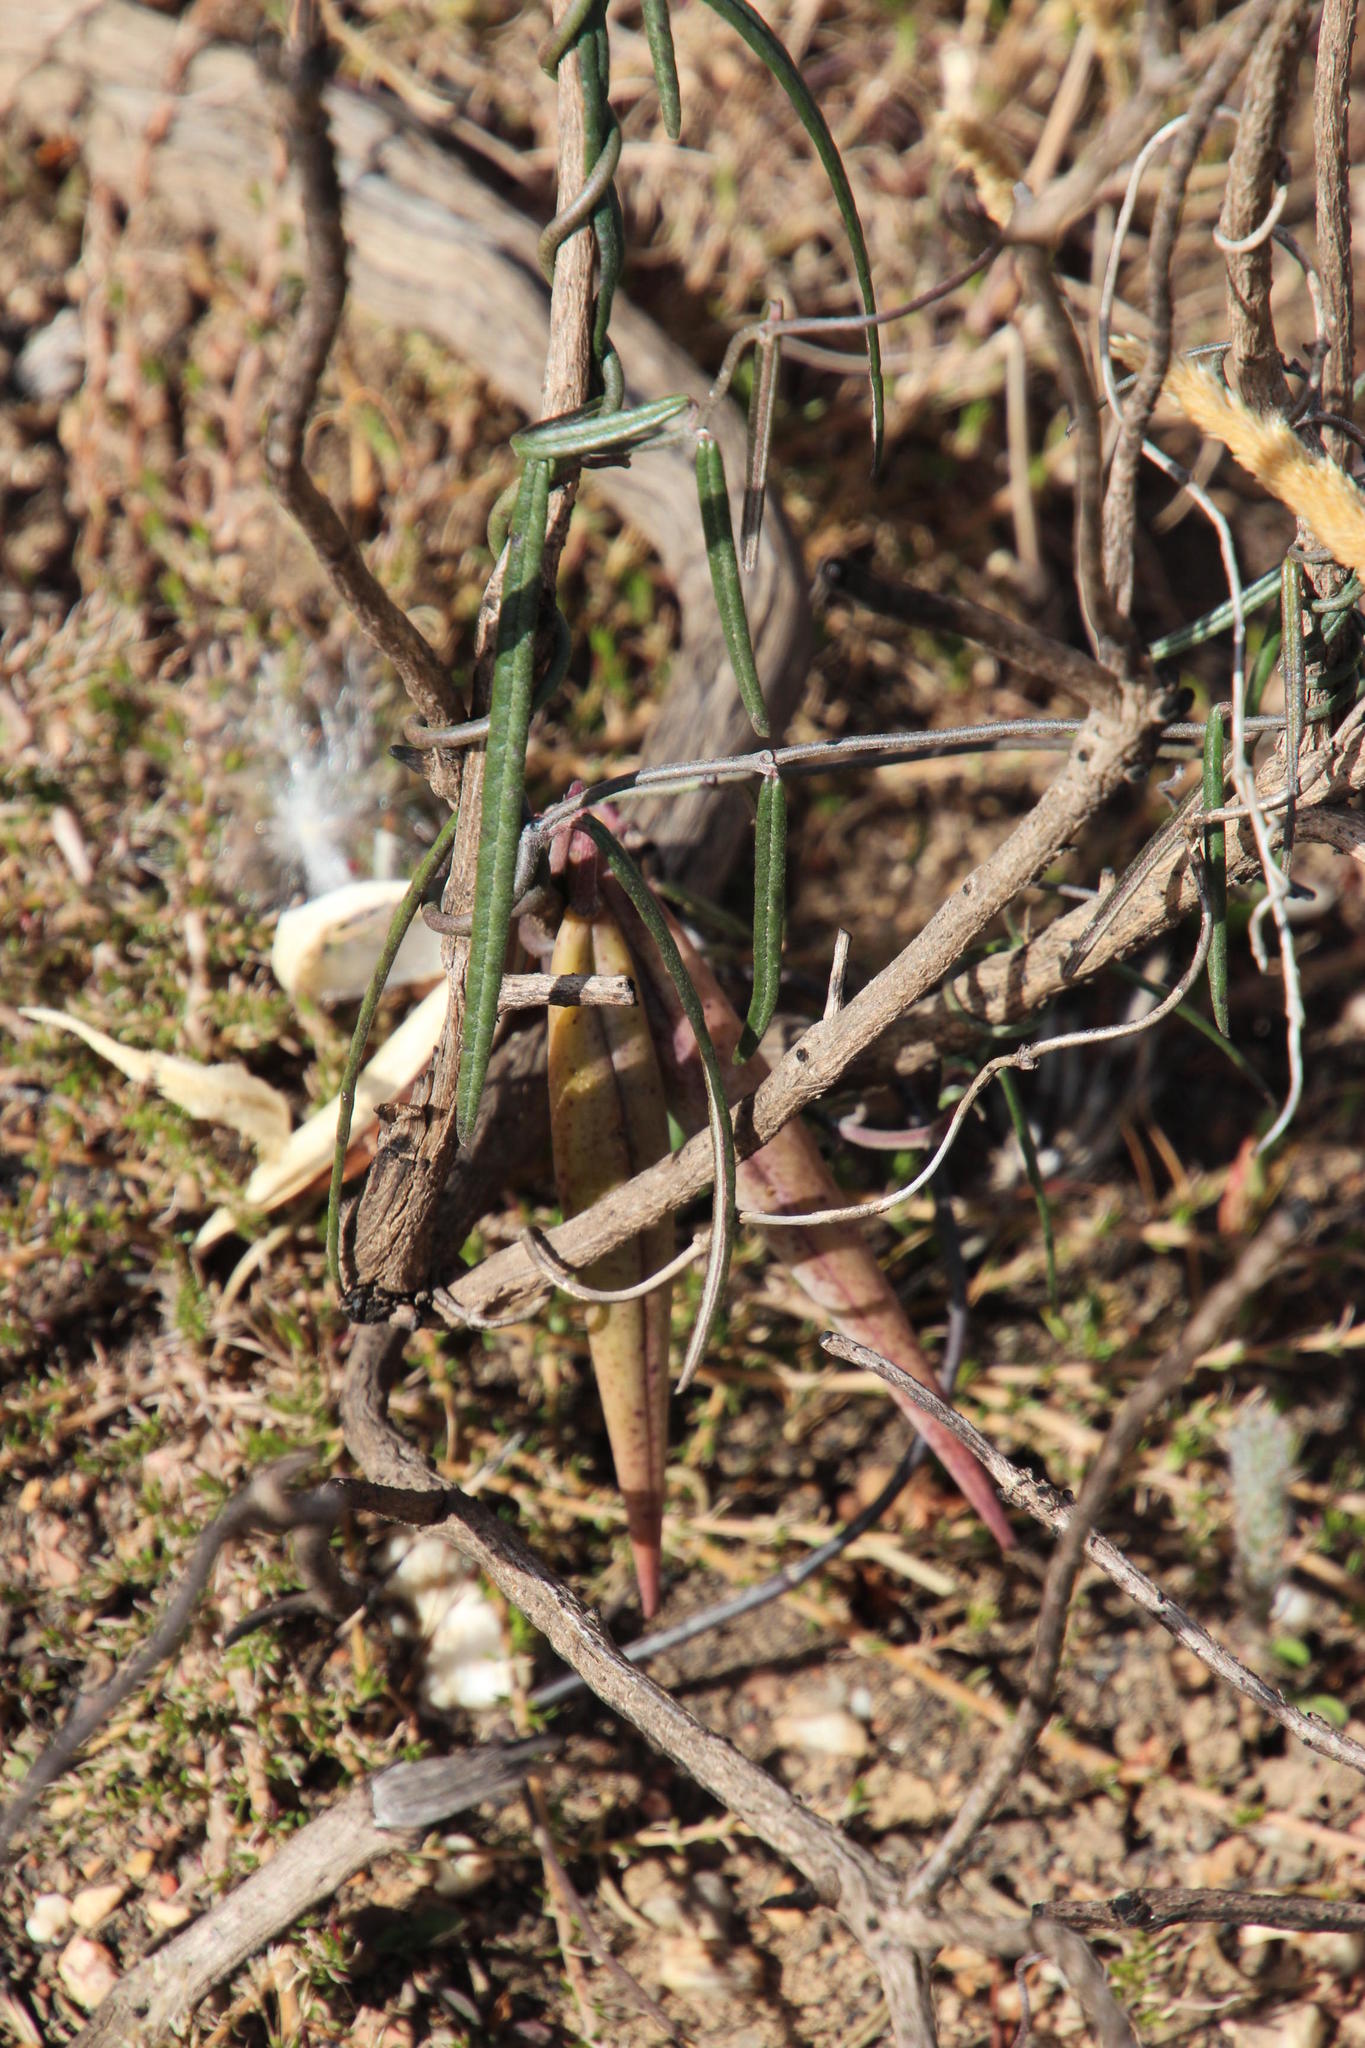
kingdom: Plantae
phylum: Tracheophyta
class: Magnoliopsida
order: Gentianales
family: Apocynaceae
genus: Microloma
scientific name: Microloma tenuifolium
